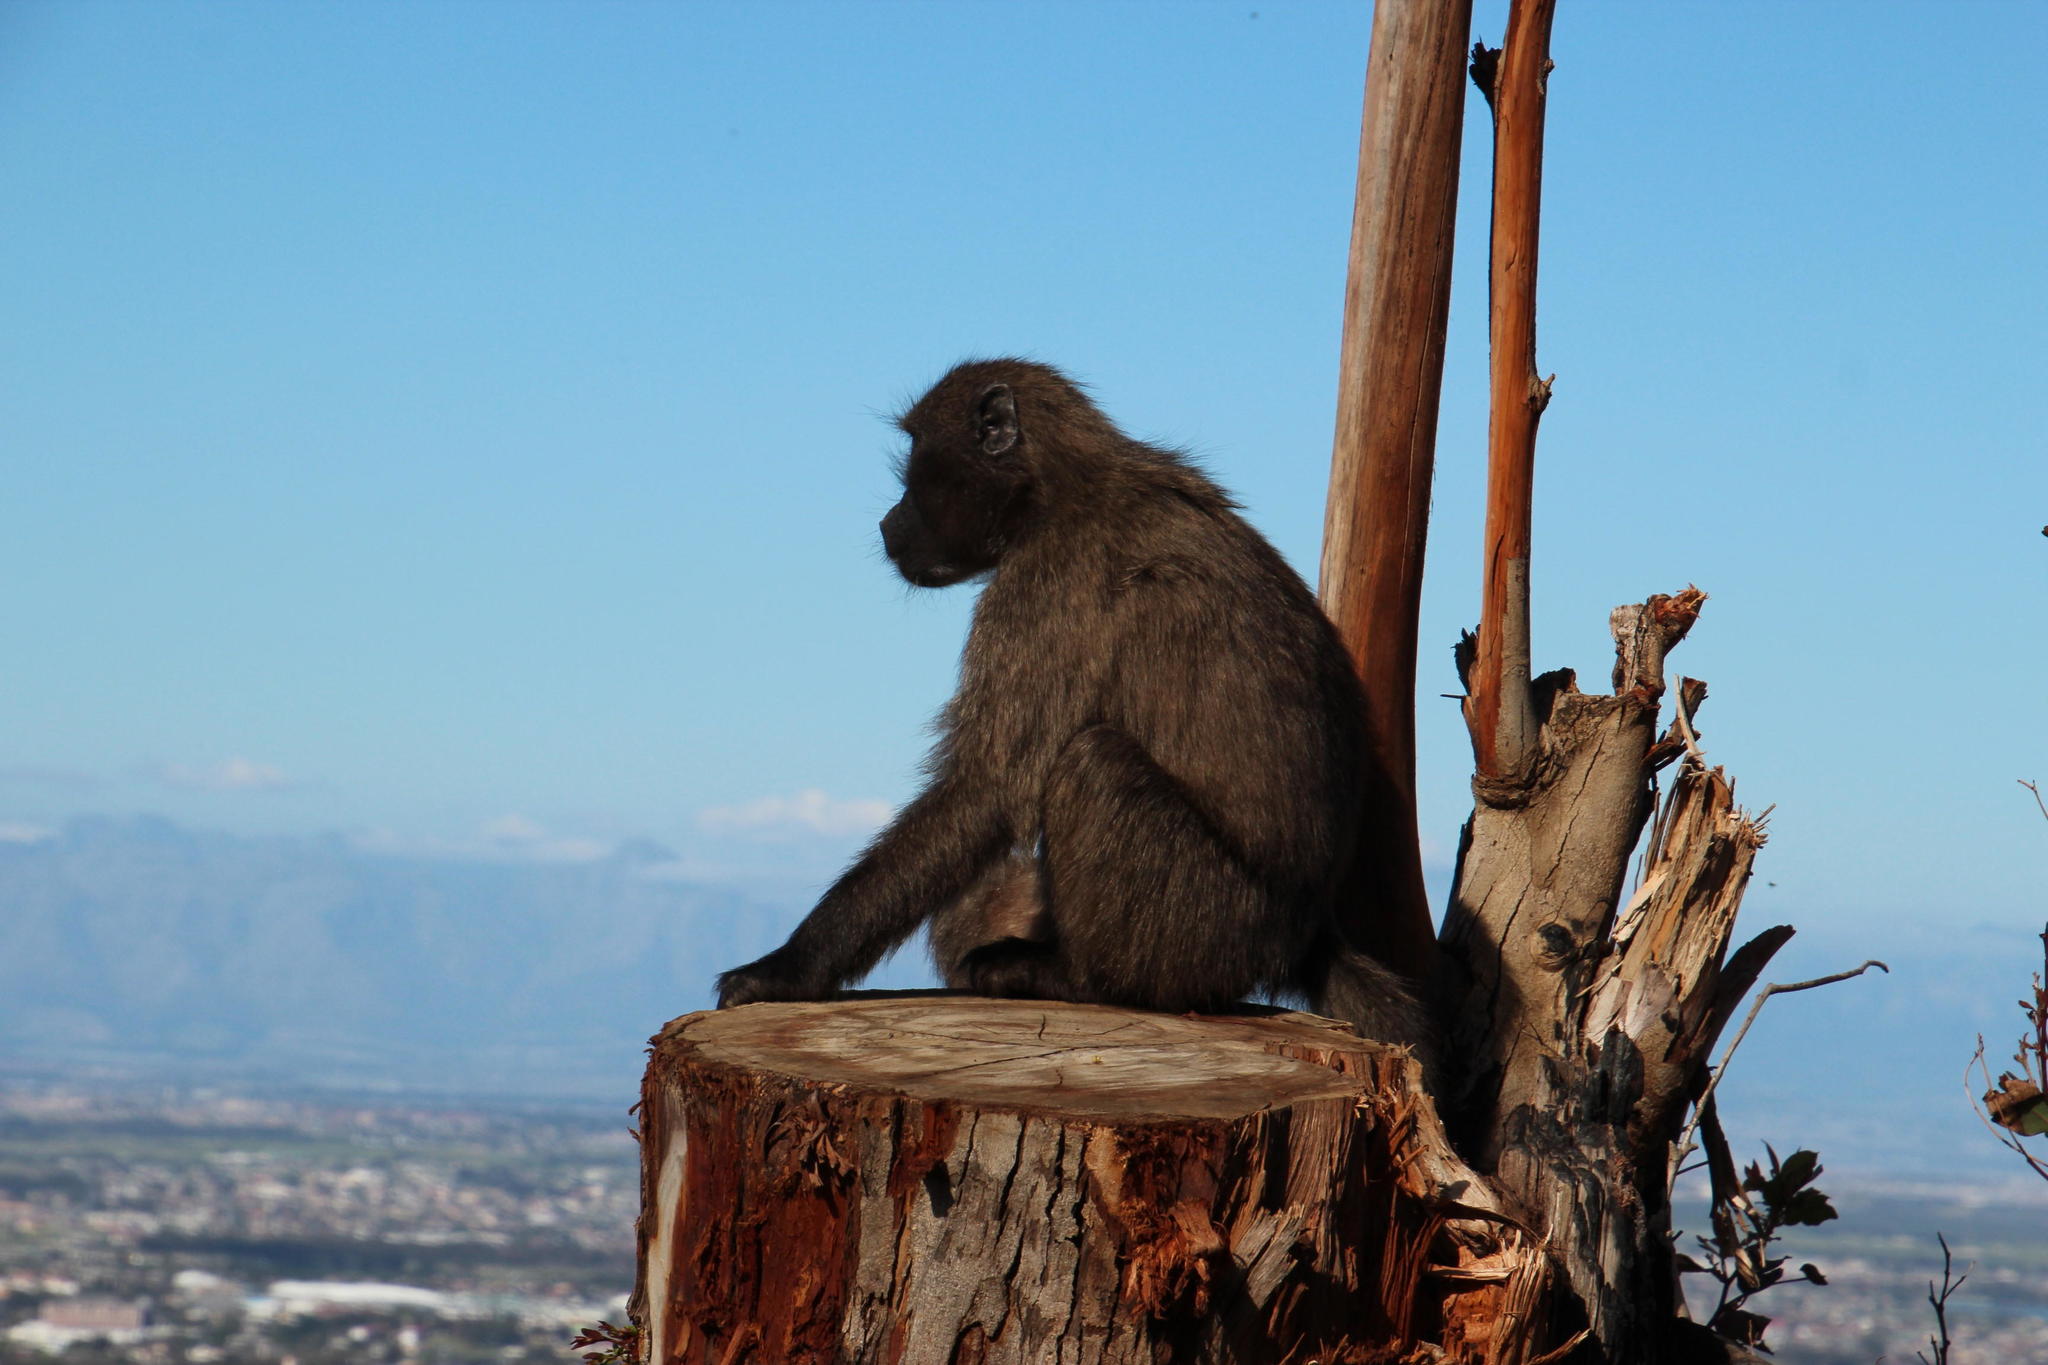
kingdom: Animalia
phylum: Chordata
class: Mammalia
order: Primates
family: Cercopithecidae
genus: Papio
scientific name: Papio ursinus
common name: Chacma baboon
